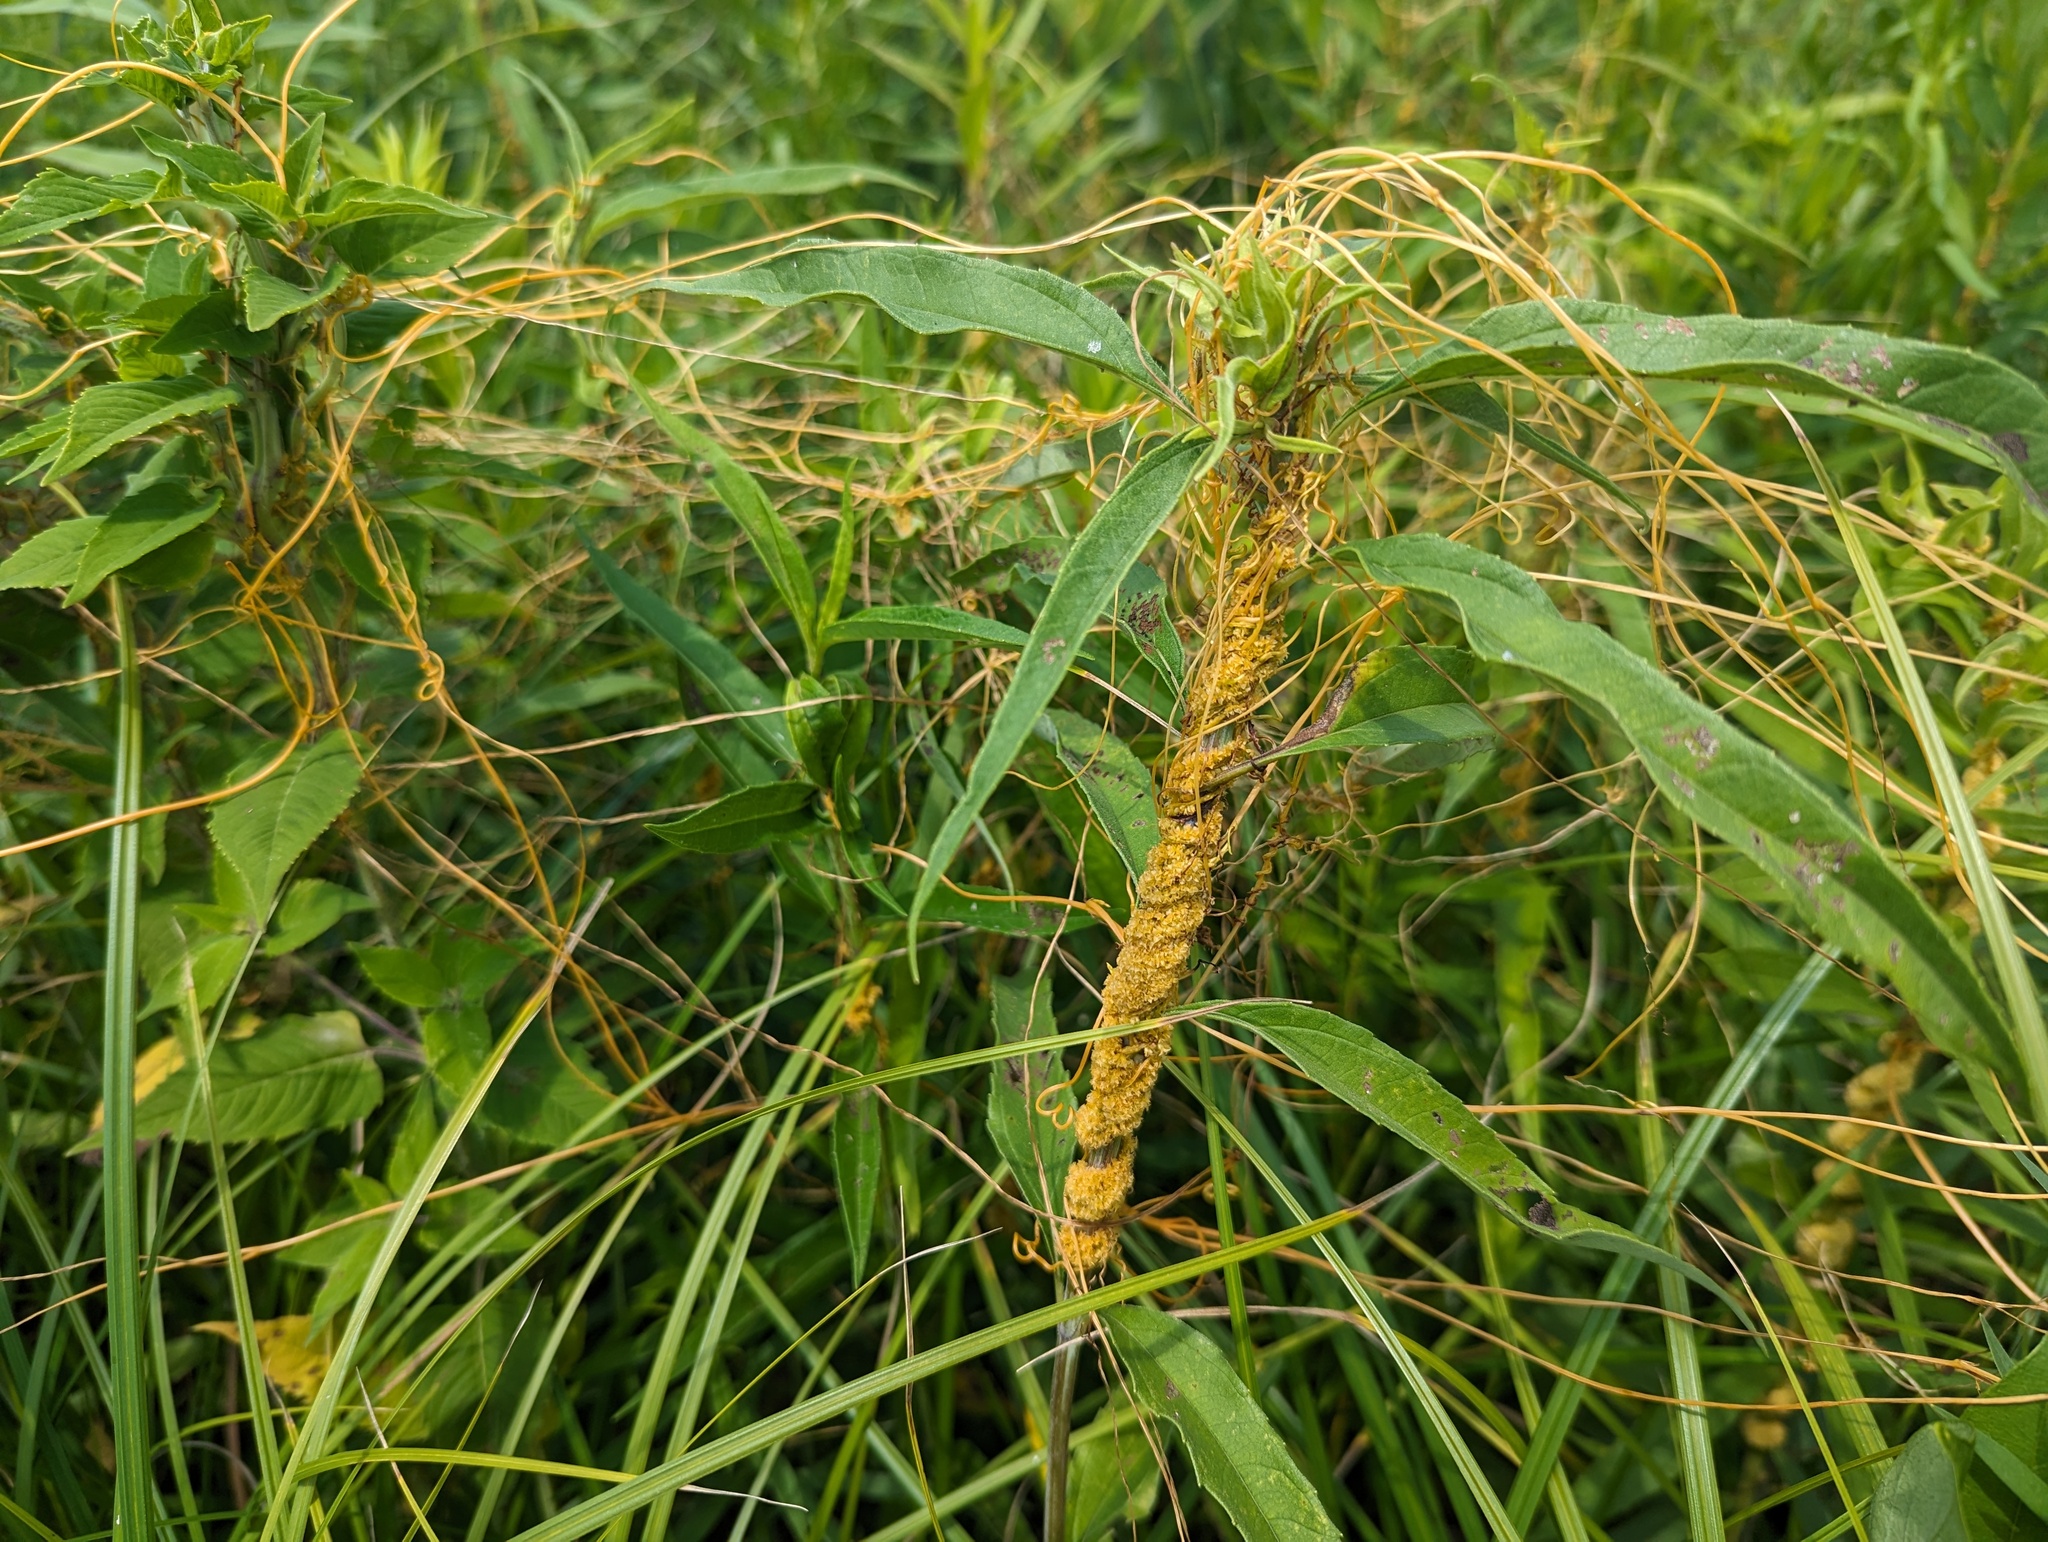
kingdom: Plantae
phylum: Tracheophyta
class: Magnoliopsida
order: Solanales
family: Convolvulaceae
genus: Cuscuta
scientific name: Cuscuta glomerata
